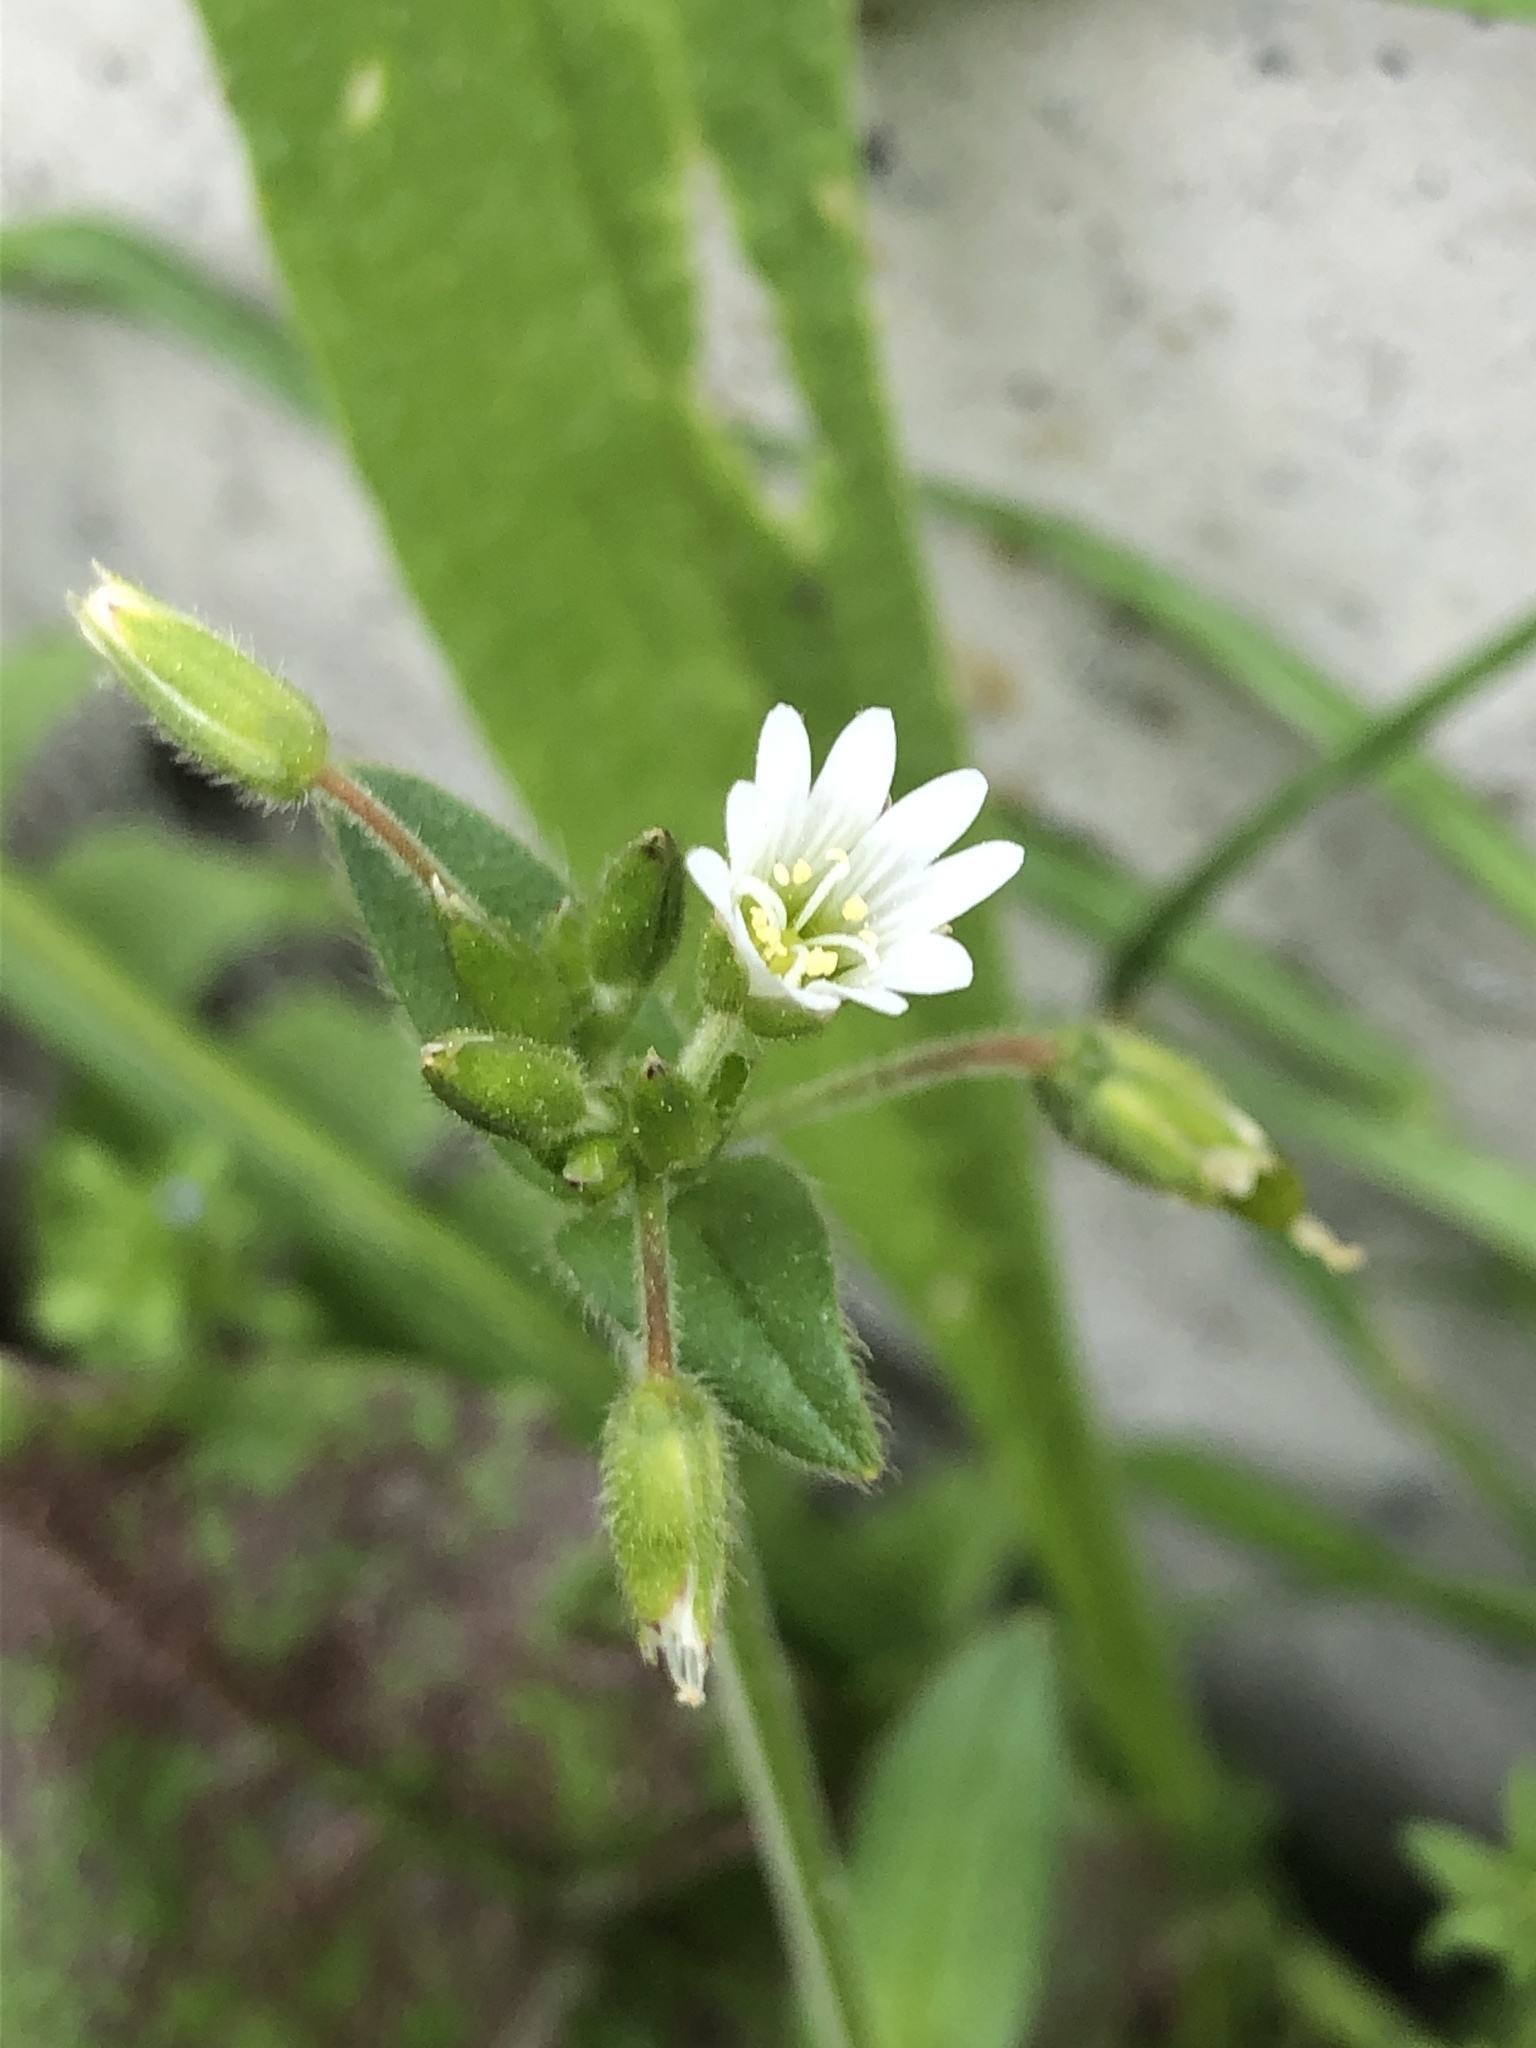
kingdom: Plantae
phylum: Tracheophyta
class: Magnoliopsida
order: Caryophyllales
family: Caryophyllaceae
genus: Cerastium
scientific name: Cerastium holosteoides
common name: Big chickweed
